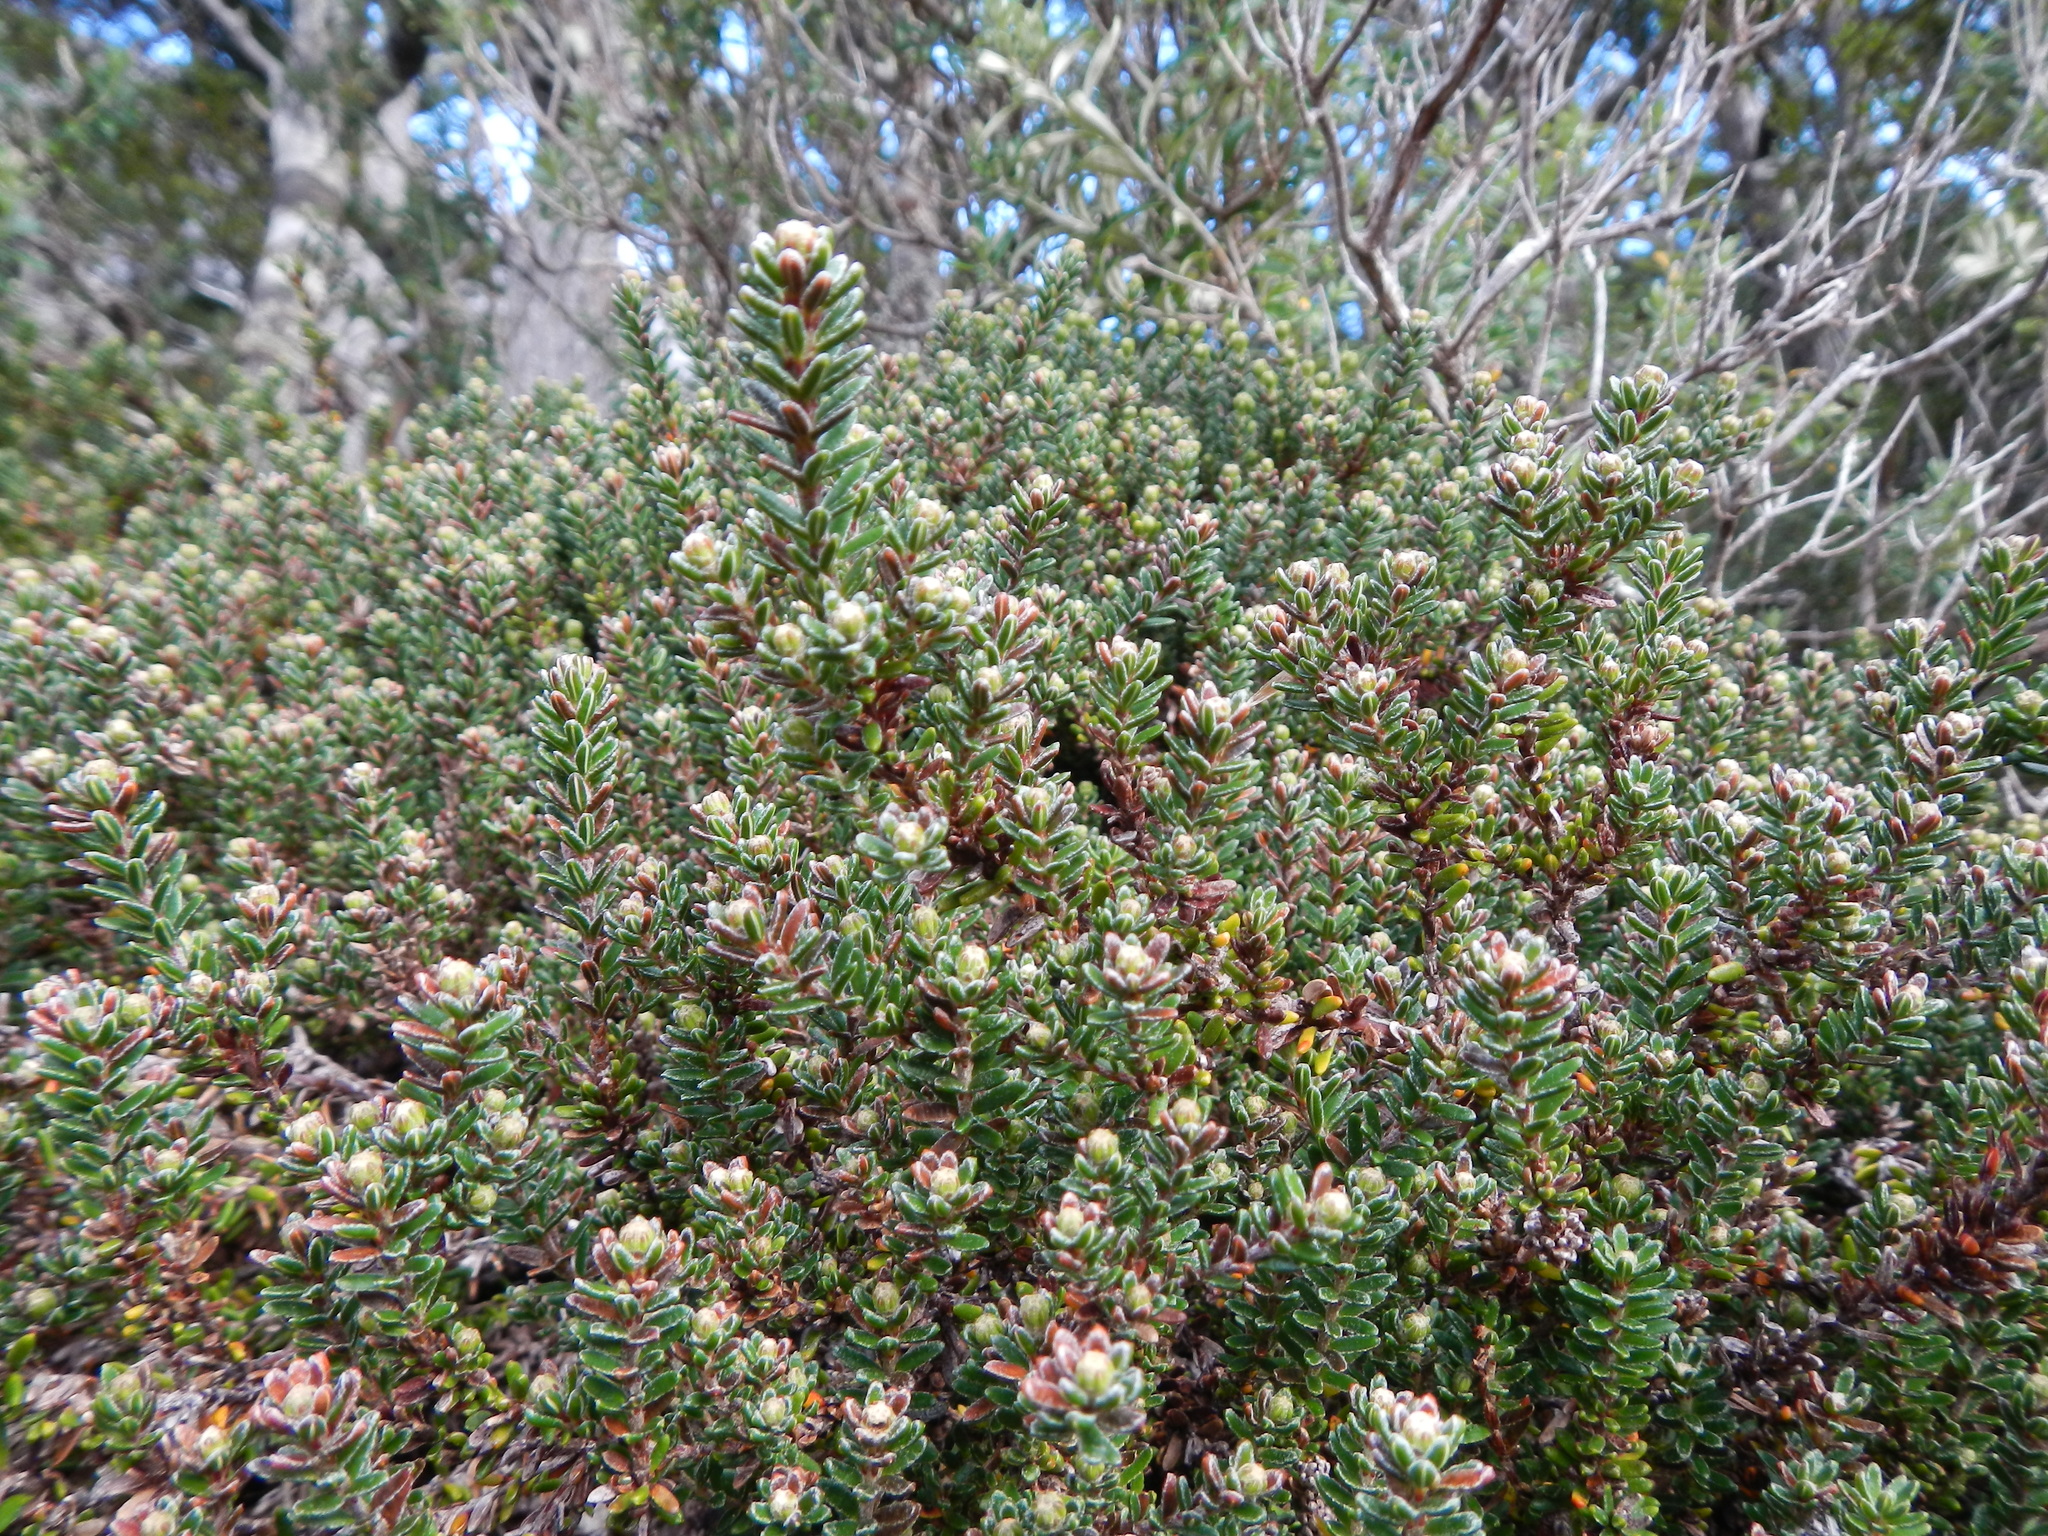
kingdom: Plantae
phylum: Tracheophyta
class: Magnoliopsida
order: Ericales
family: Ericaceae
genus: Empetrum
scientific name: Empetrum rubrum
